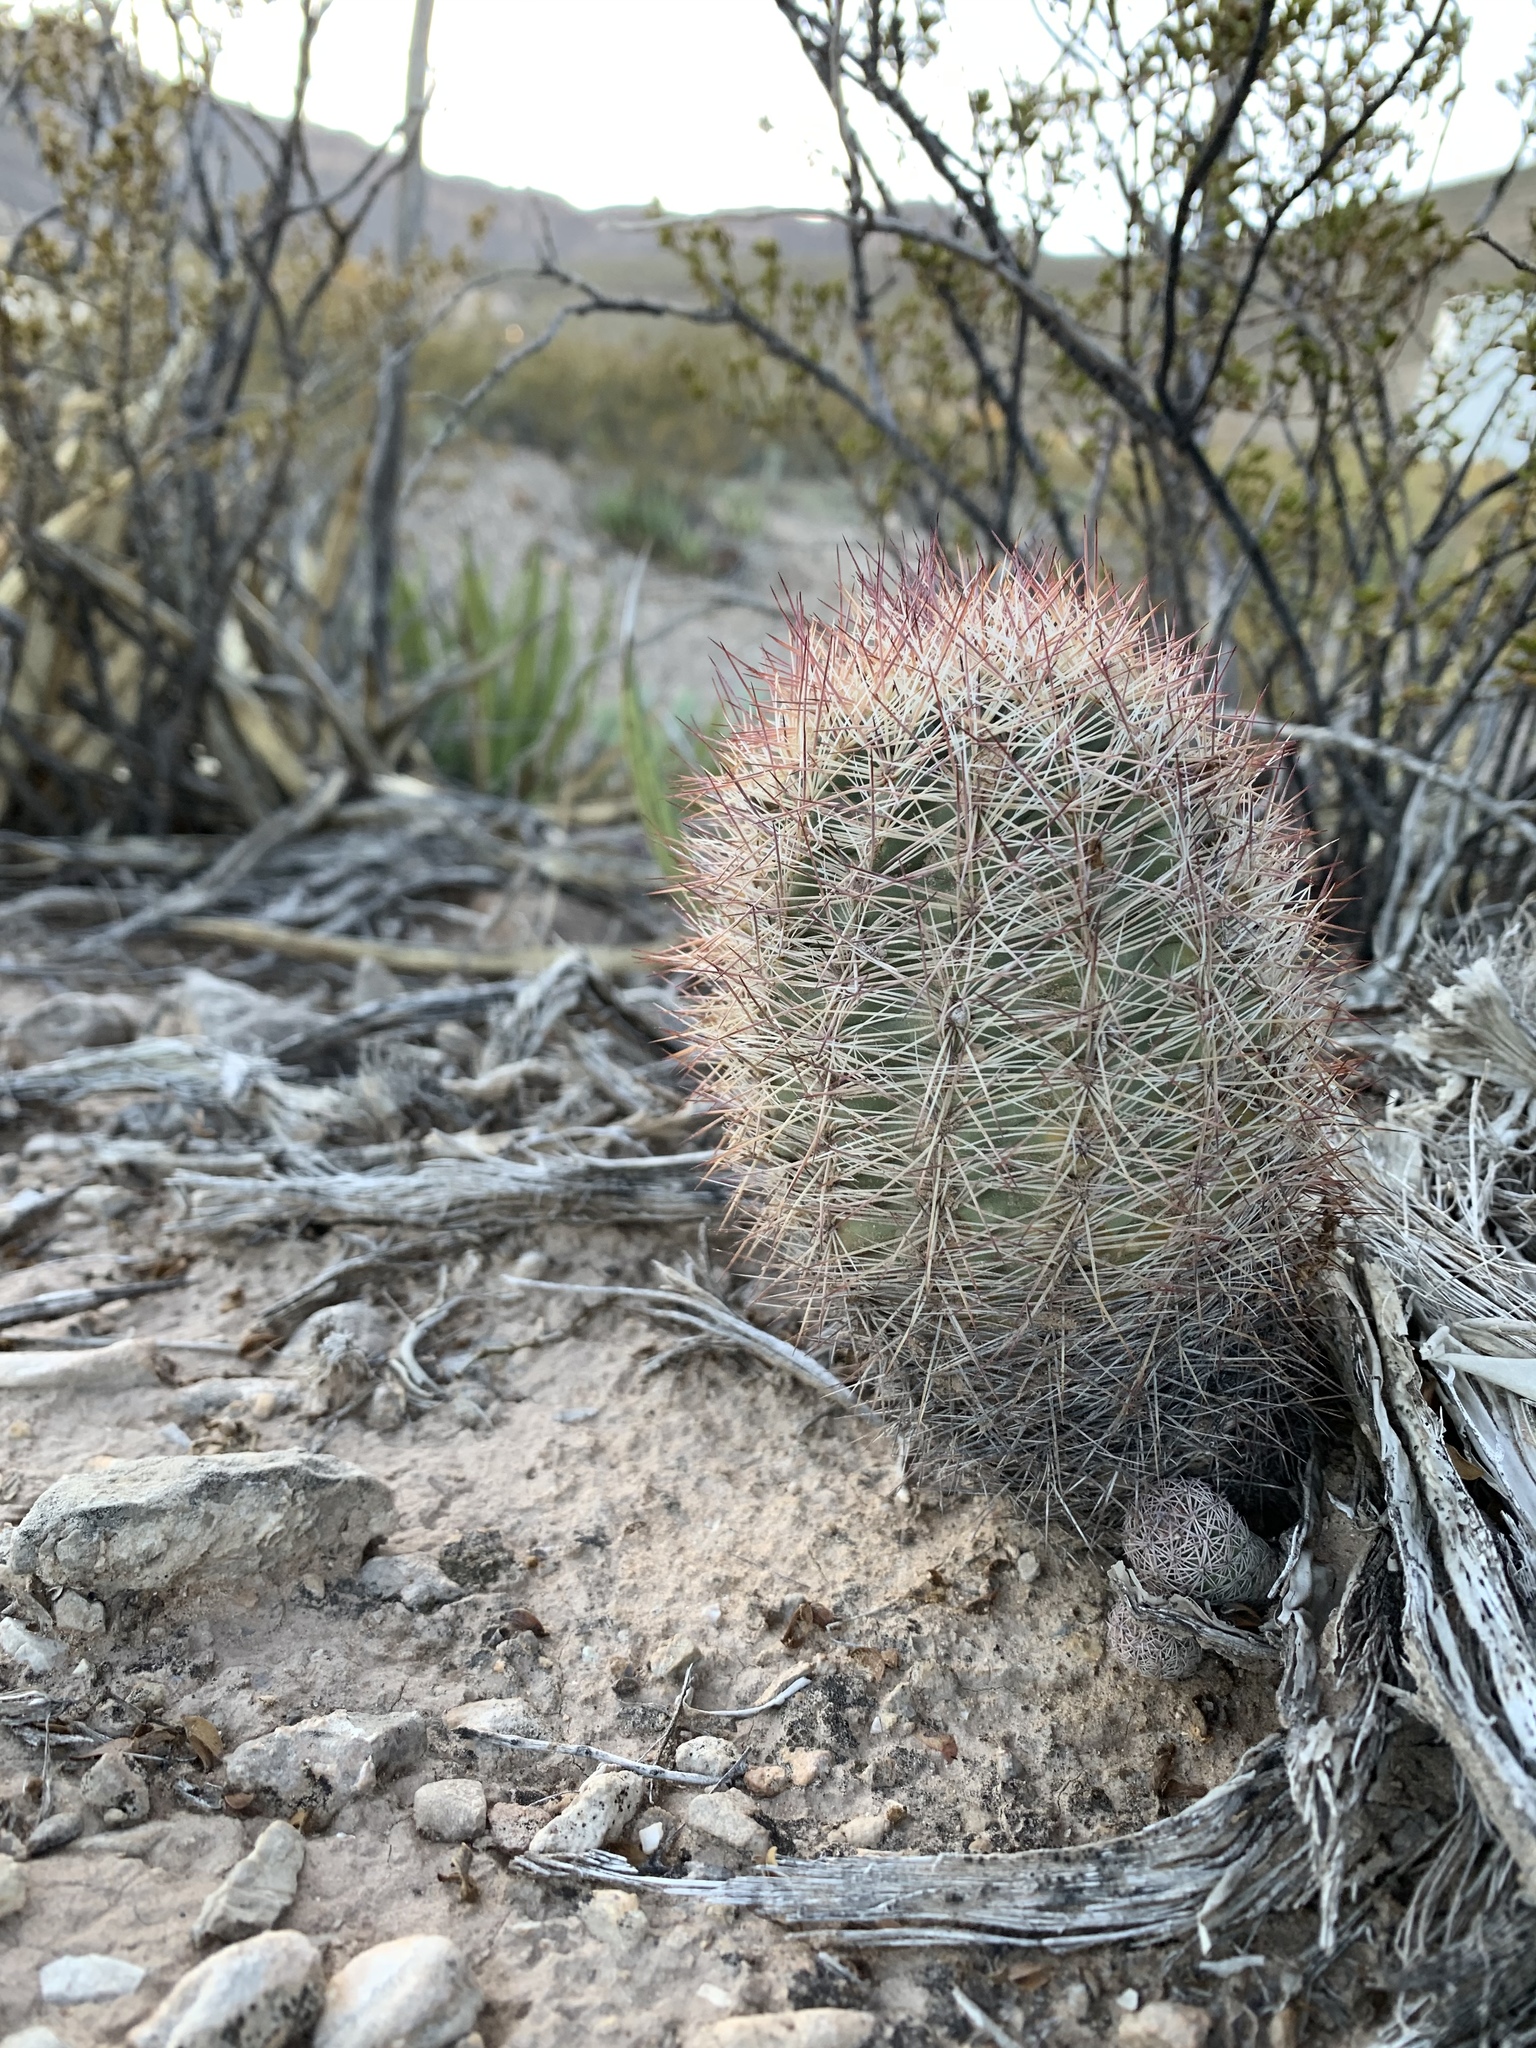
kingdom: Plantae
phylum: Tracheophyta
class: Magnoliopsida
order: Caryophyllales
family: Cactaceae
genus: Sclerocactus
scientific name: Sclerocactus intertextus
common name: White fish-hook cactus
